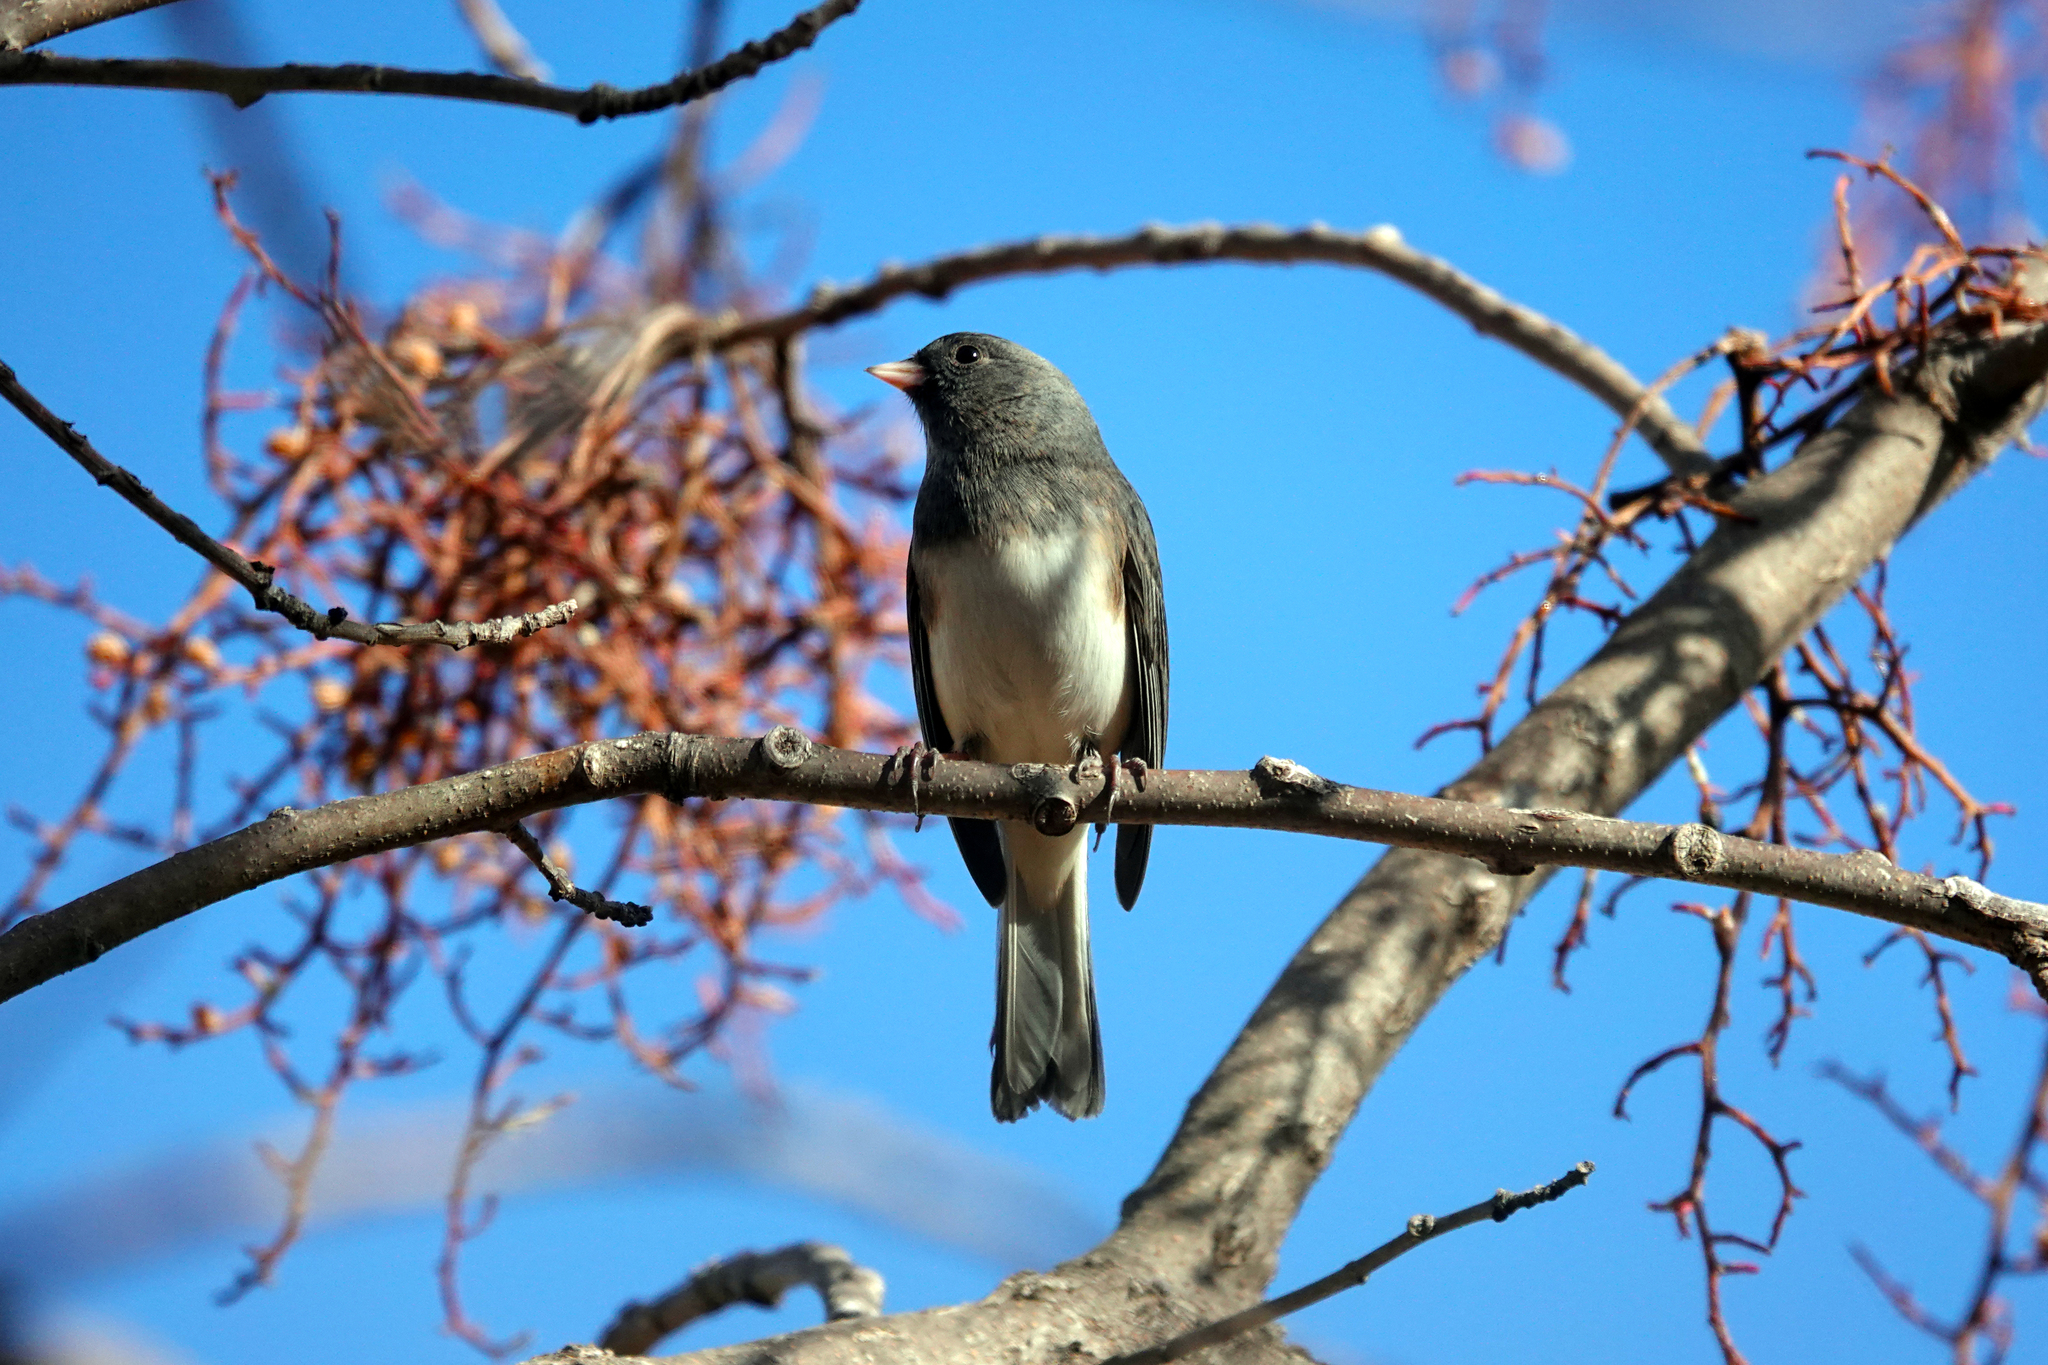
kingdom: Animalia
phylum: Chordata
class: Aves
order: Passeriformes
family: Passerellidae
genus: Junco
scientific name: Junco hyemalis
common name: Dark-eyed junco
